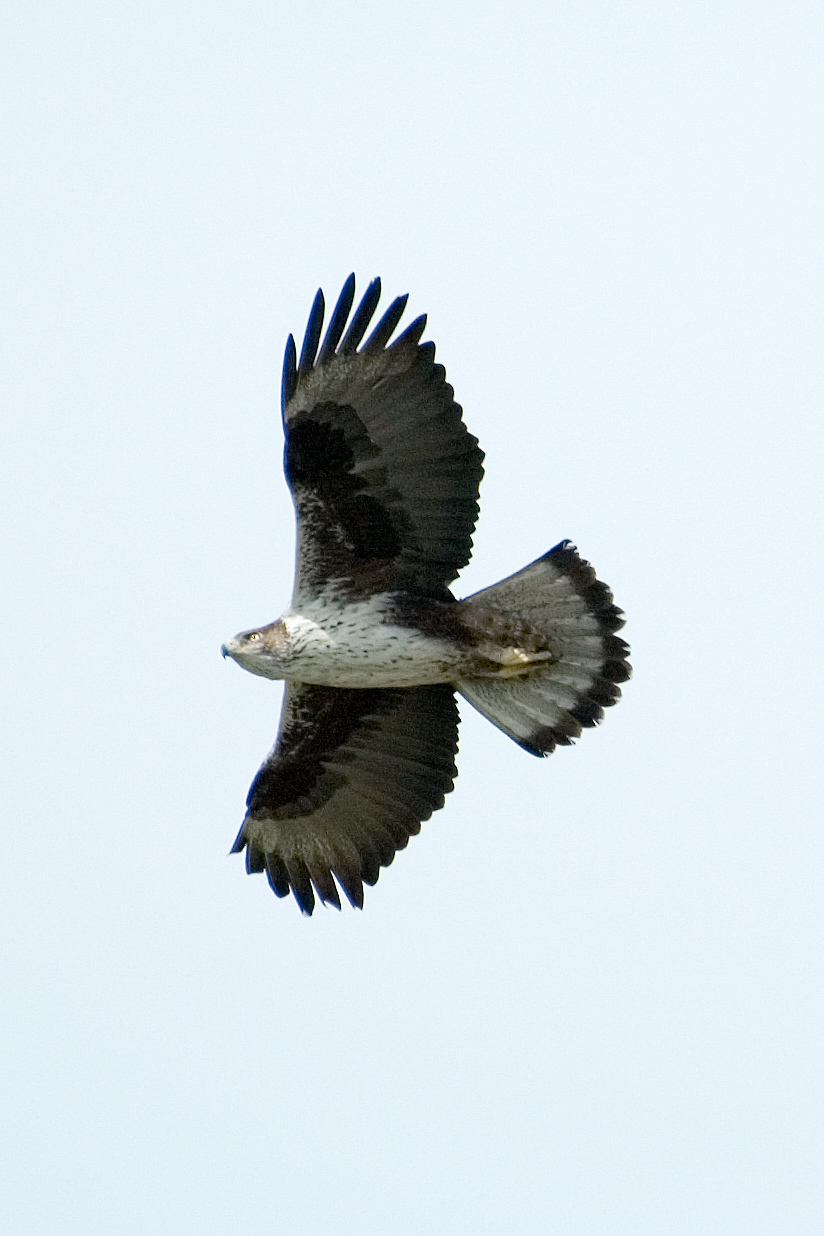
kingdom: Animalia
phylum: Chordata
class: Aves
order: Accipitriformes
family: Accipitridae
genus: Aquila
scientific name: Aquila fasciata
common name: Bonelli's eagle
